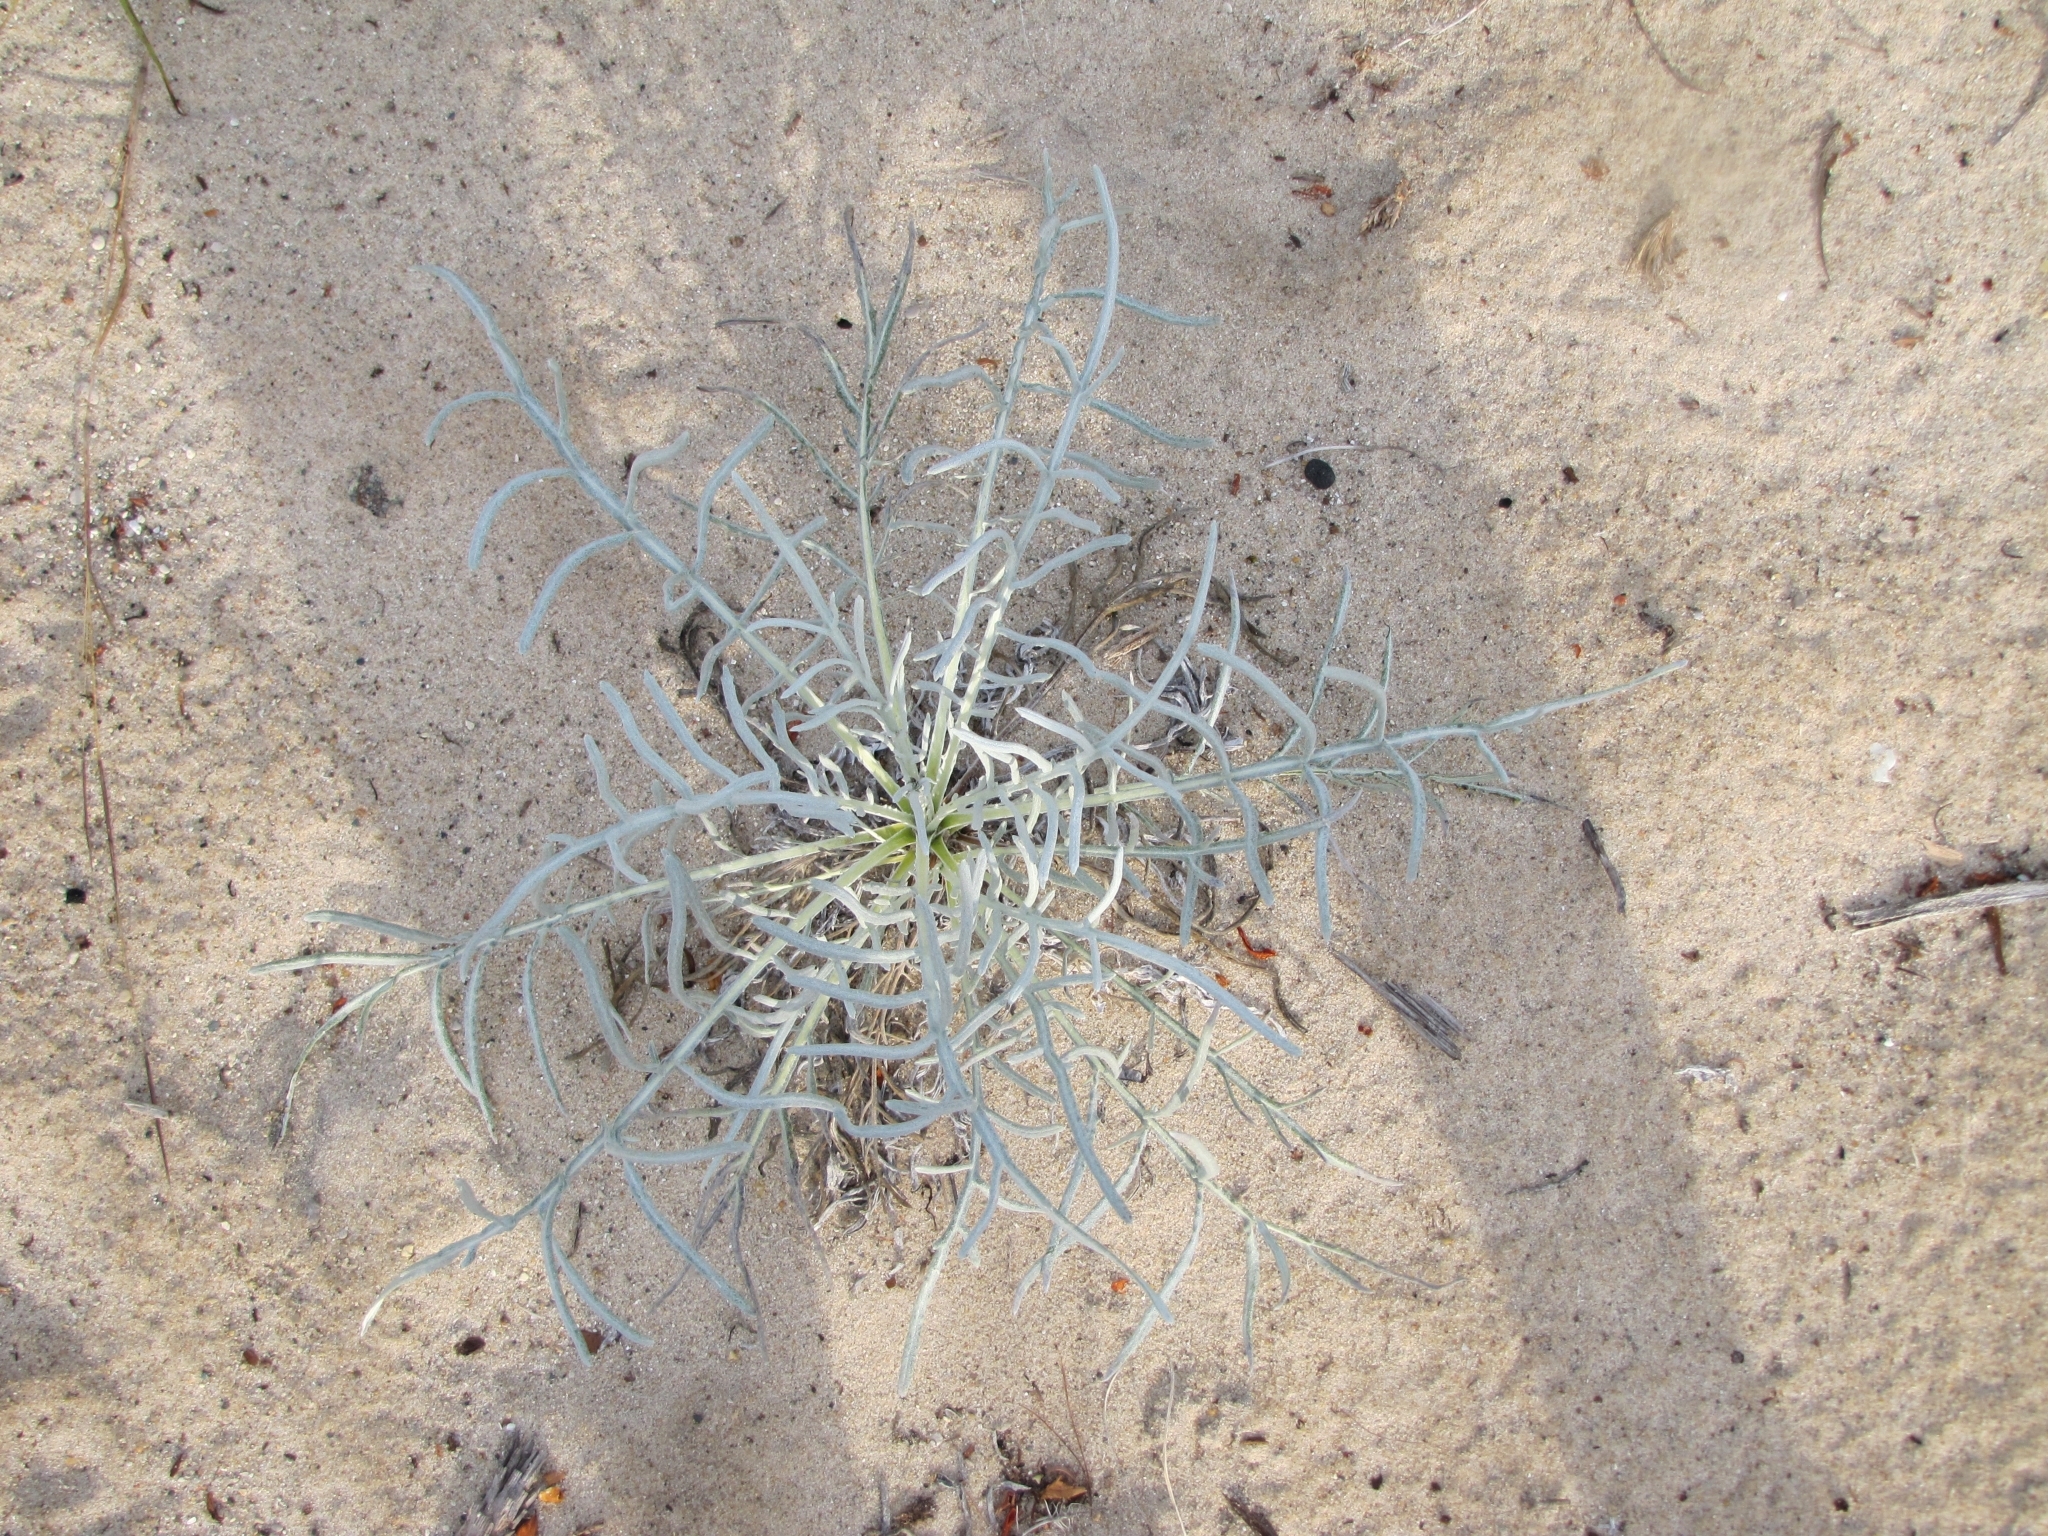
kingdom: Plantae
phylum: Tracheophyta
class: Magnoliopsida
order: Asterales
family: Asteraceae
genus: Cirsium
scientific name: Cirsium pitcheri
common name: Dune thistle
